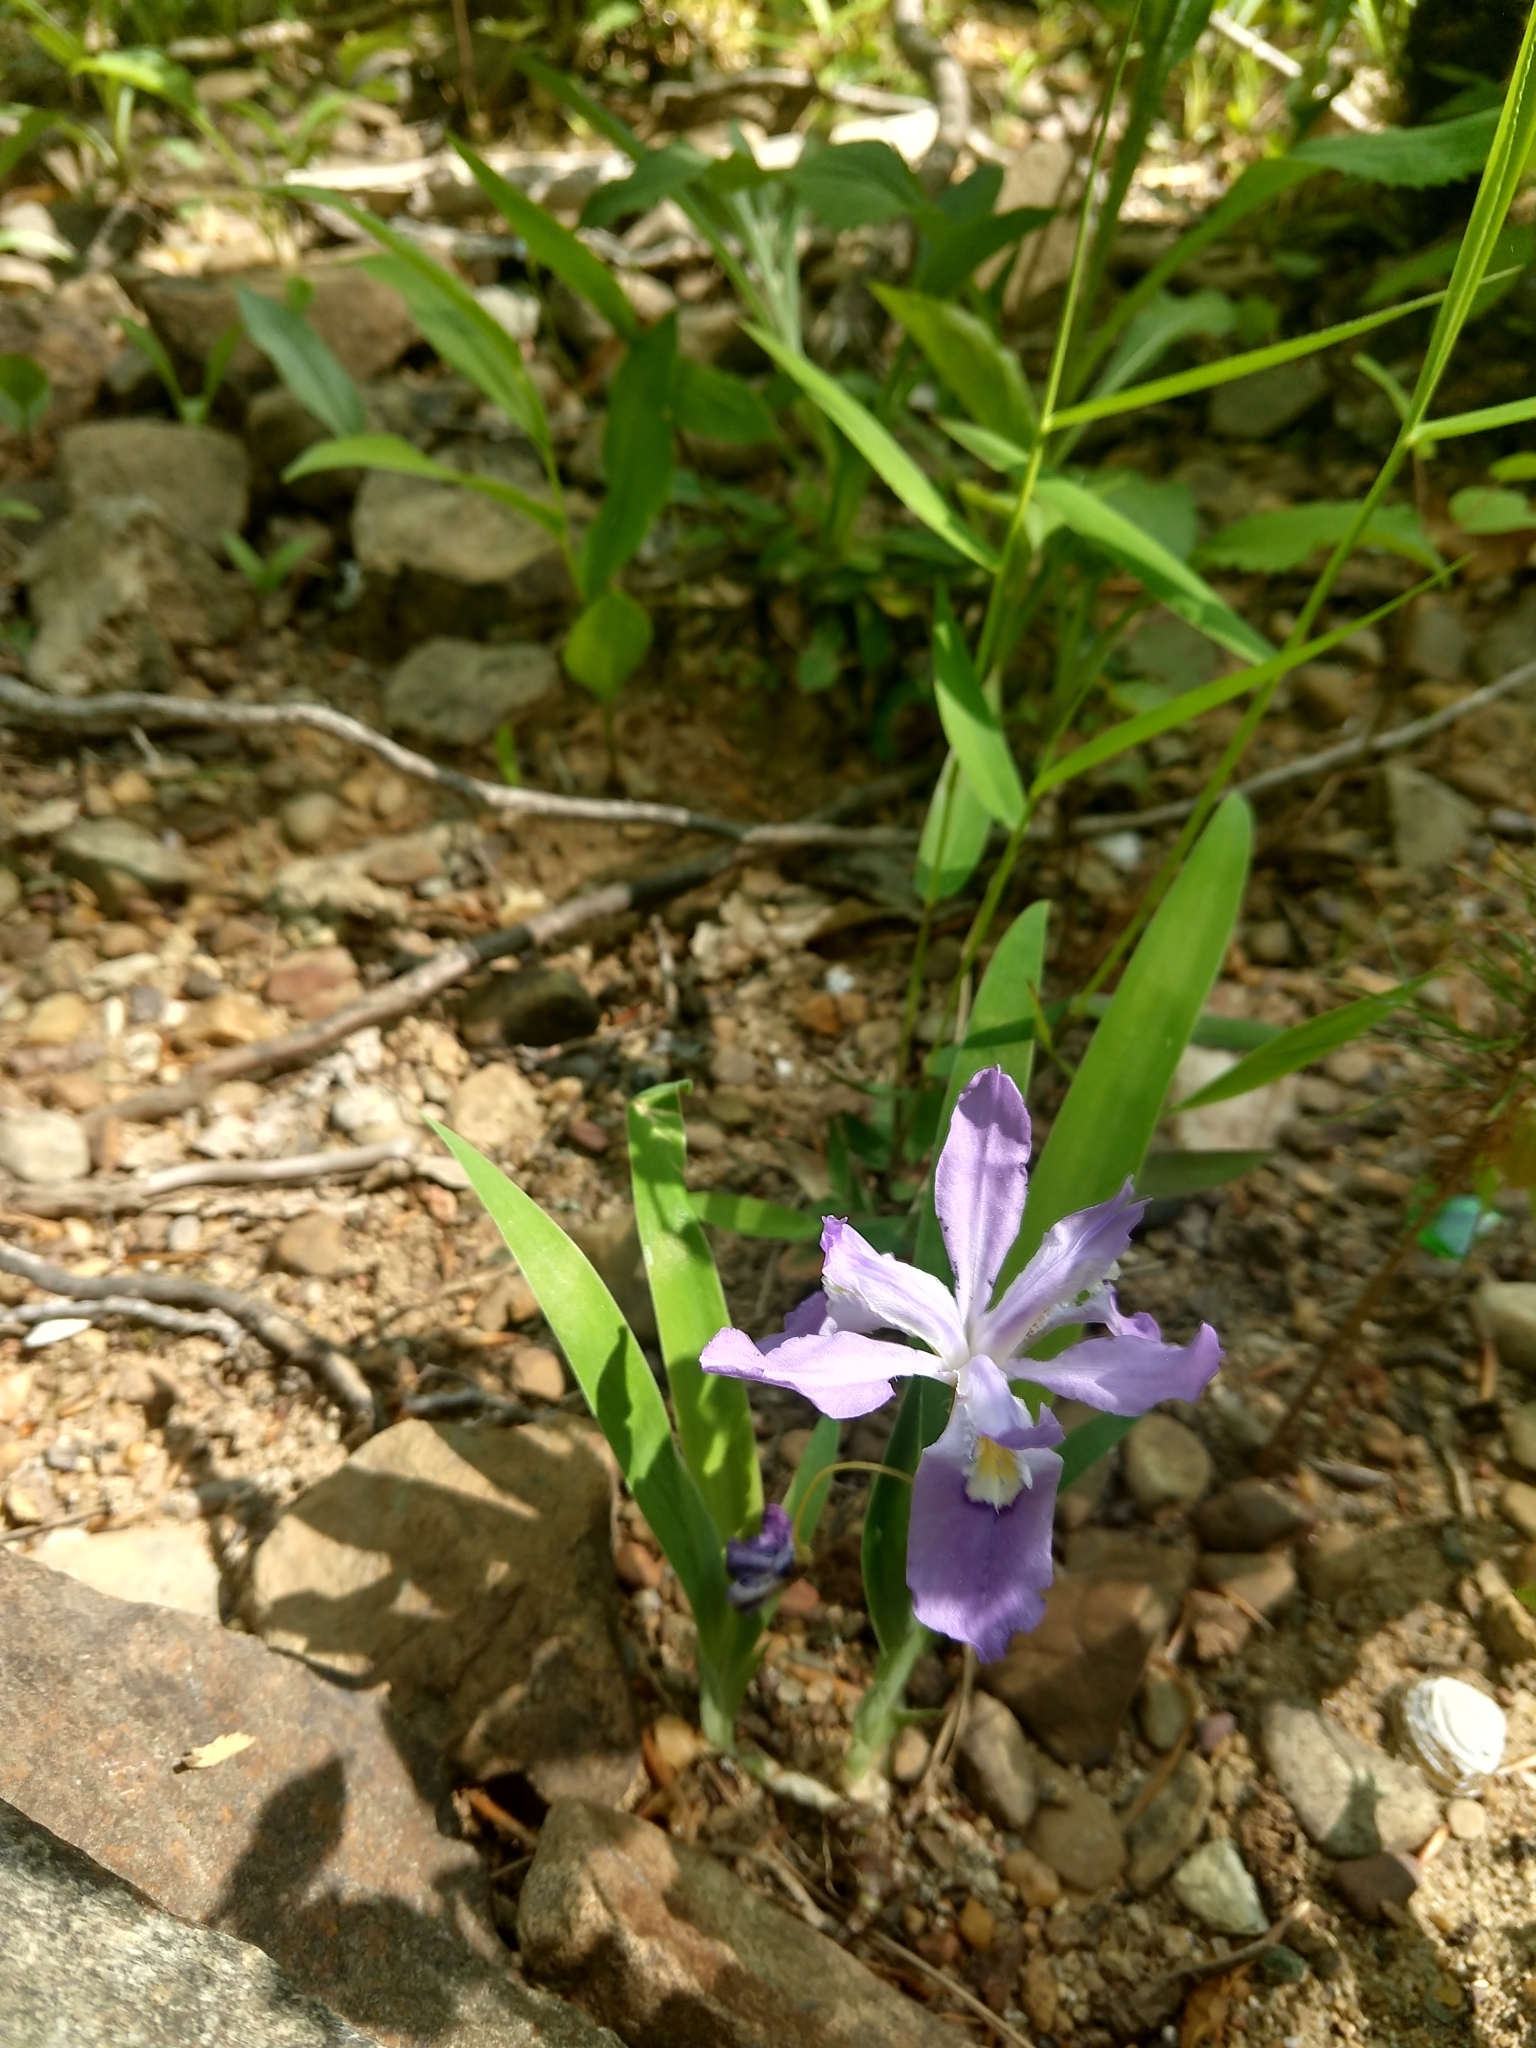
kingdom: Plantae
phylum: Tracheophyta
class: Liliopsida
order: Asparagales
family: Iridaceae
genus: Iris
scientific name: Iris cristata
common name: Crested iris
